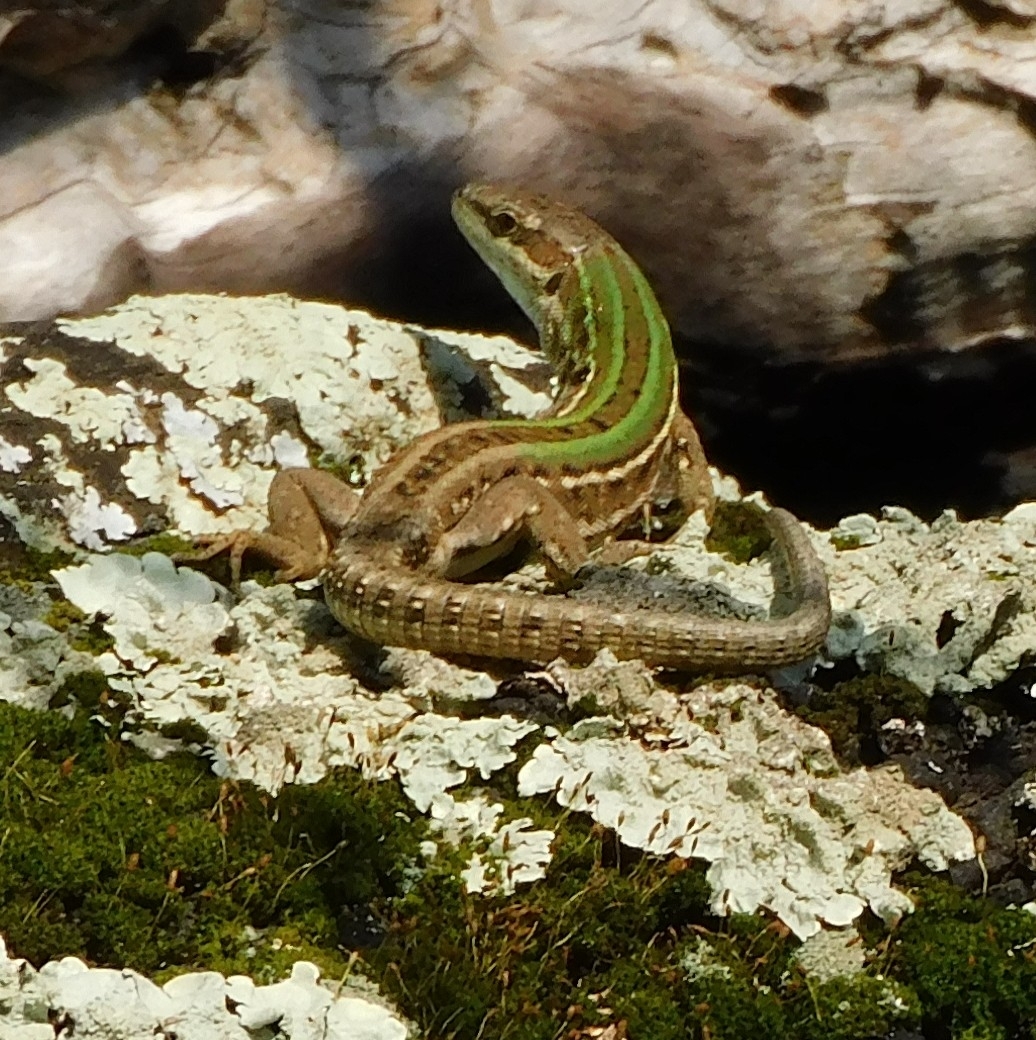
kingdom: Animalia
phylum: Chordata
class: Squamata
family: Lacertidae
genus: Podarcis
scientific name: Podarcis siculus
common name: Italian wall lizard
